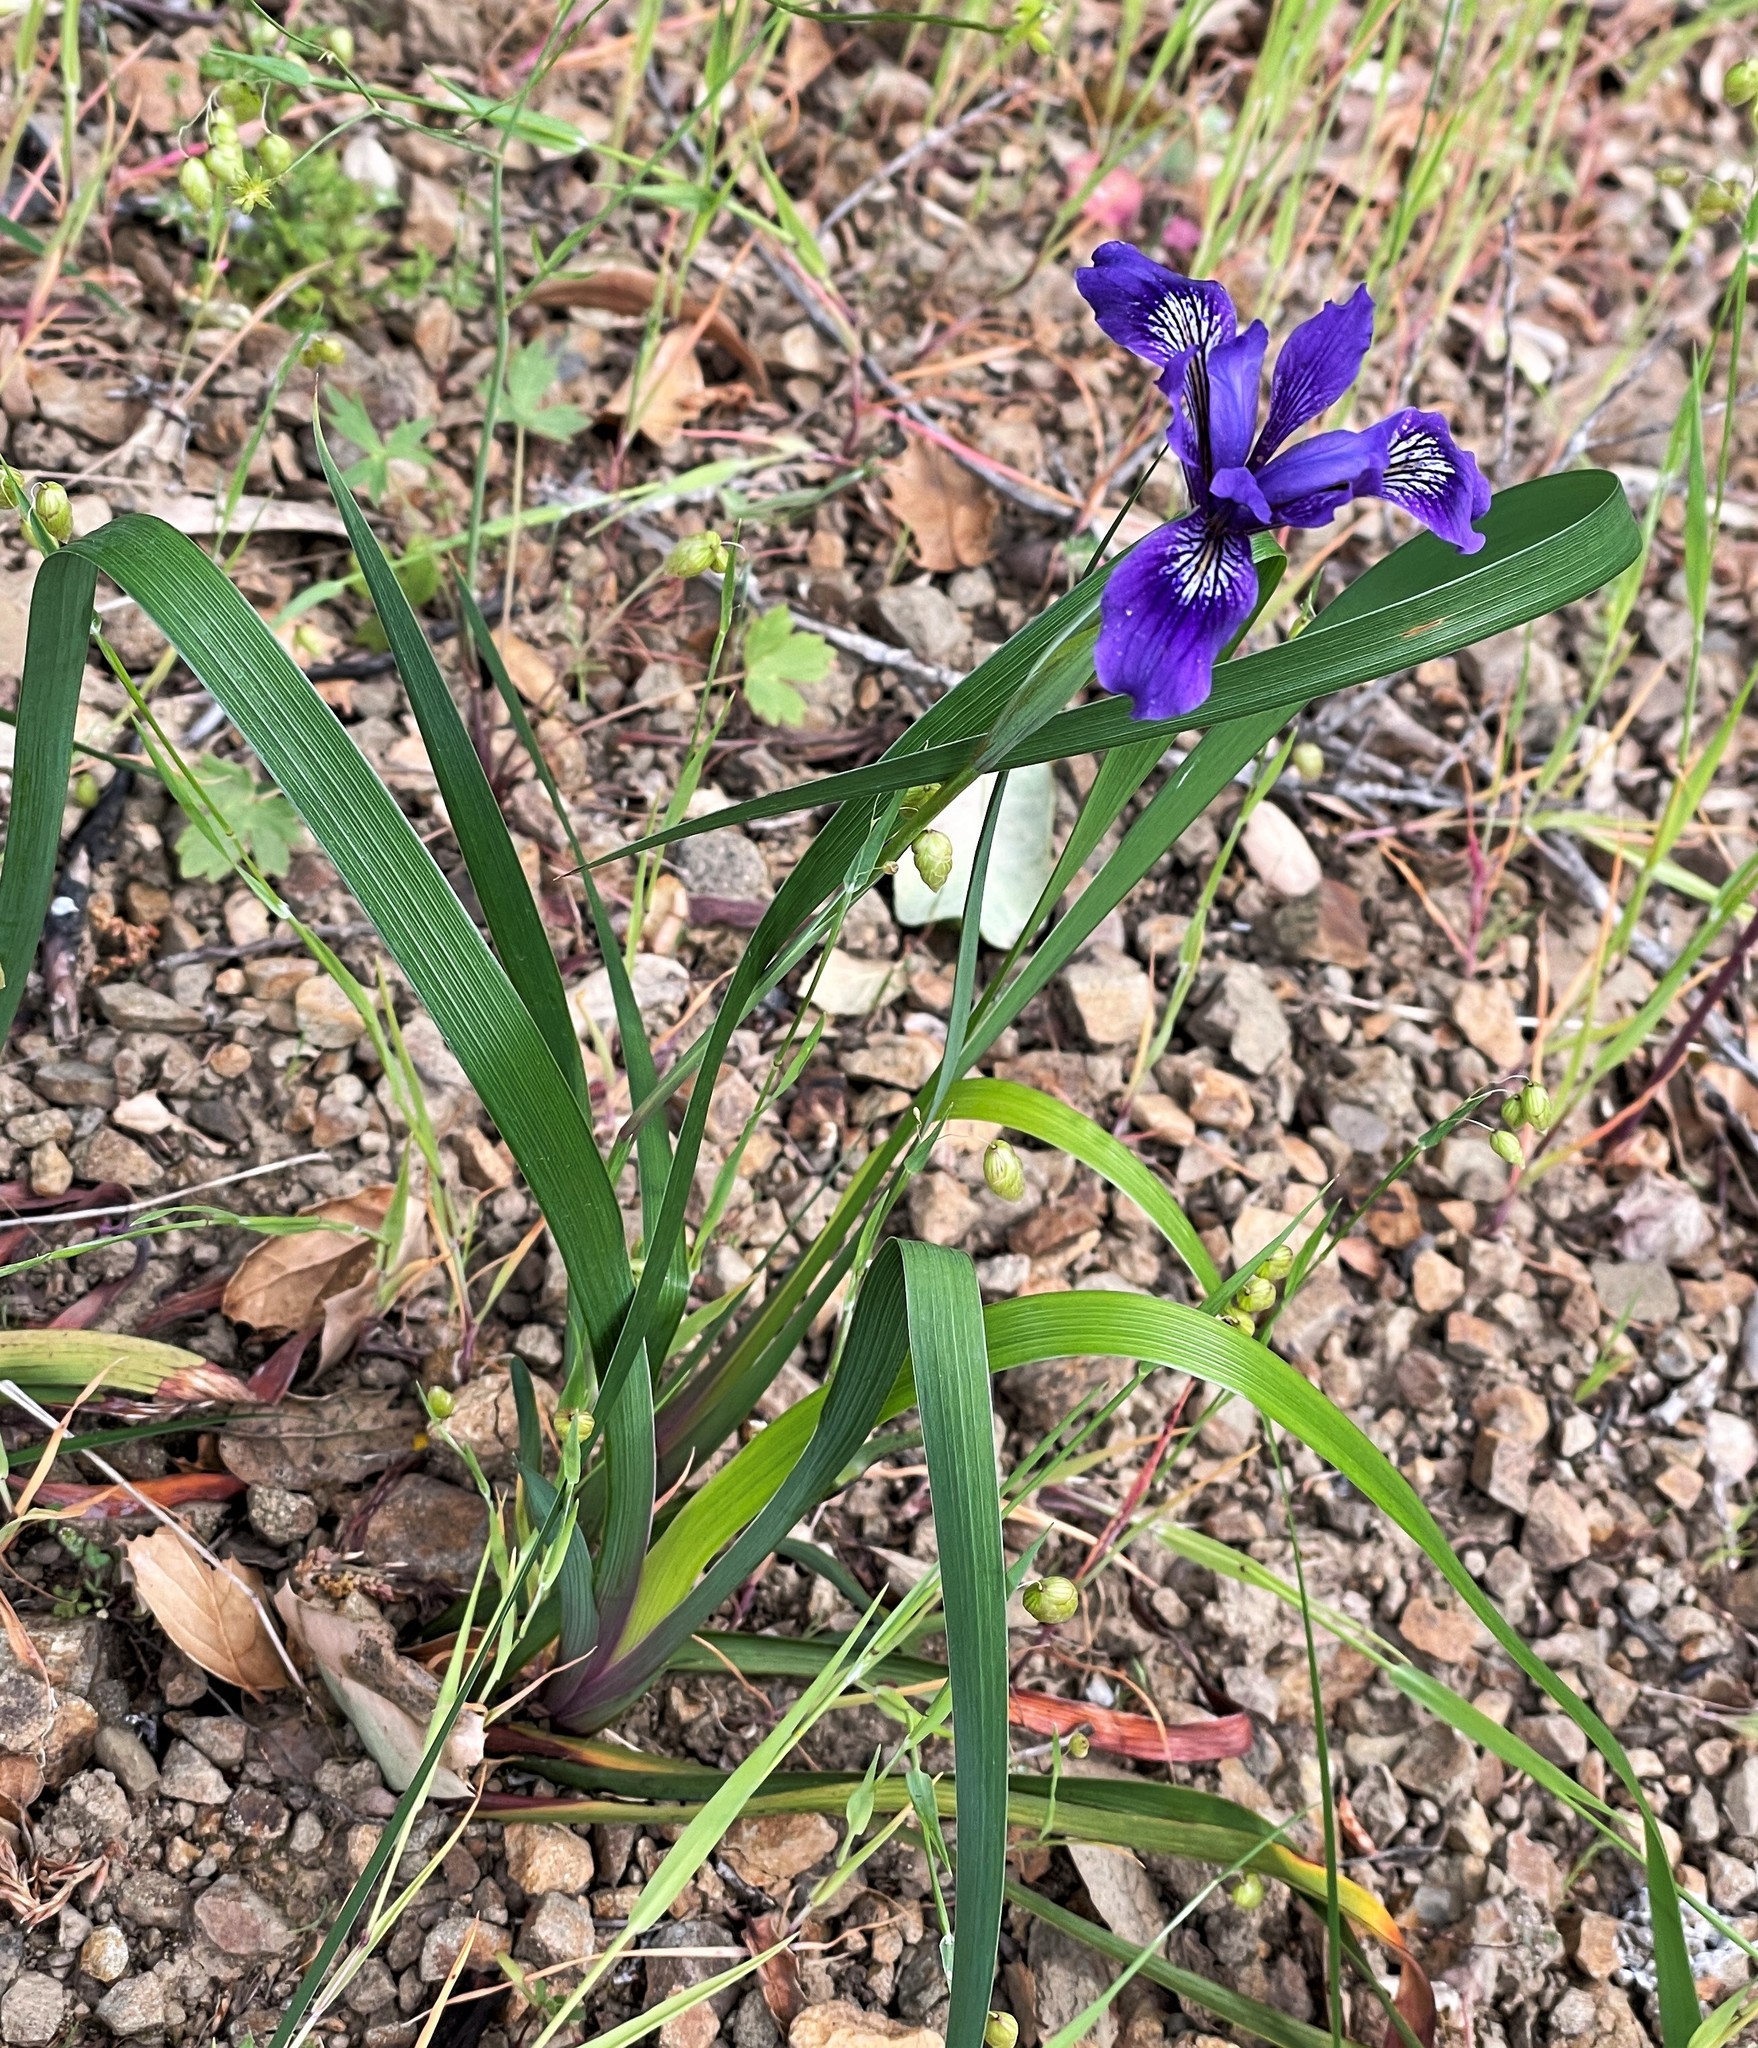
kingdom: Plantae
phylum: Tracheophyta
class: Liliopsida
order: Asparagales
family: Iridaceae
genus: Iris
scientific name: Iris douglasiana
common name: Marin iris
